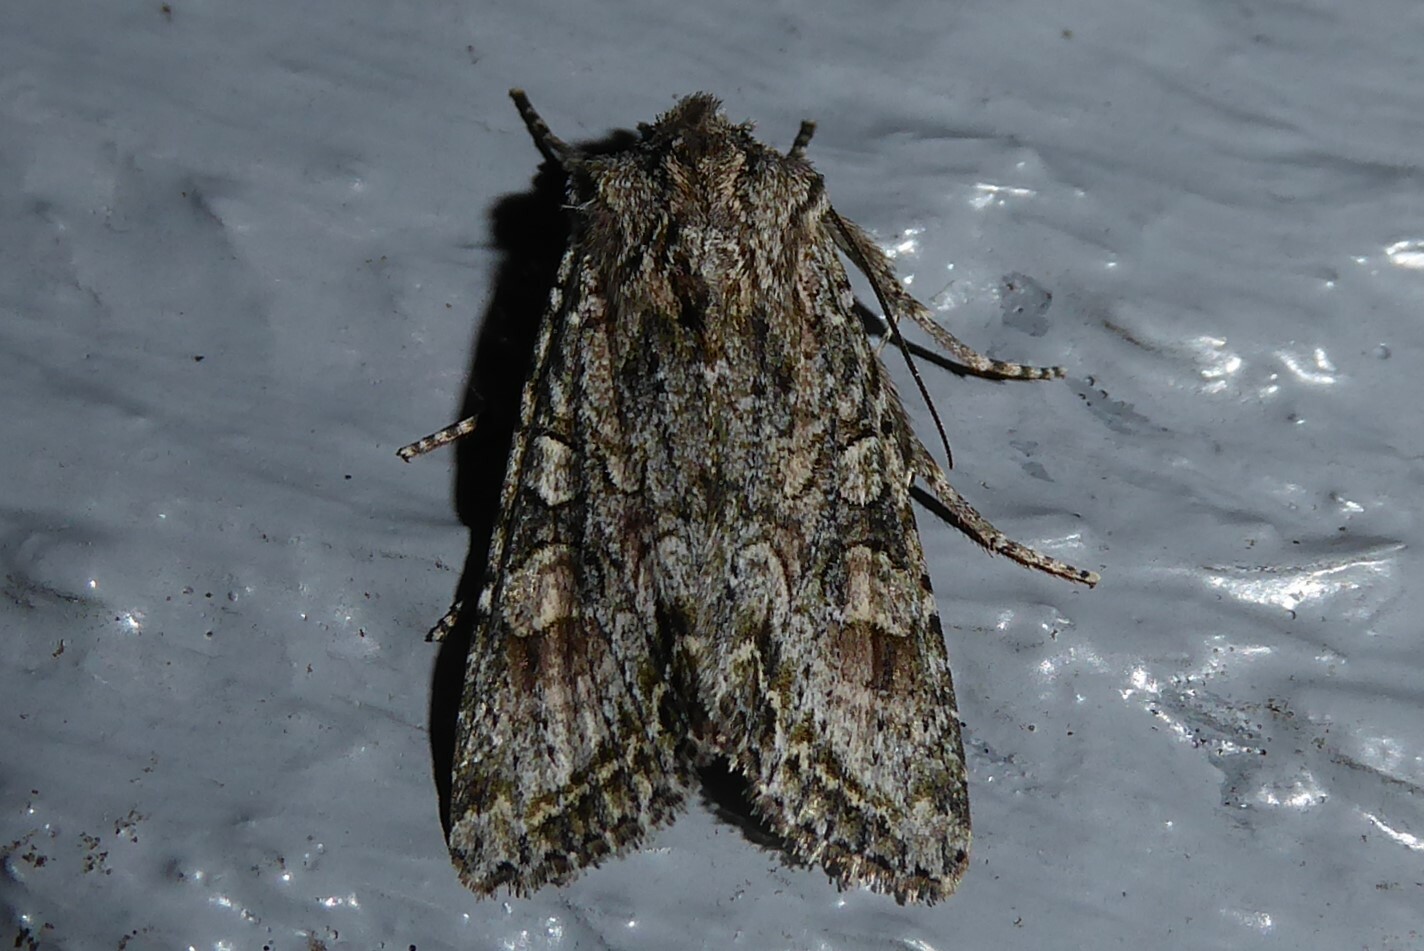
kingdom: Animalia
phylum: Arthropoda
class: Insecta
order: Lepidoptera
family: Noctuidae
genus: Ichneutica
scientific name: Ichneutica mutans
